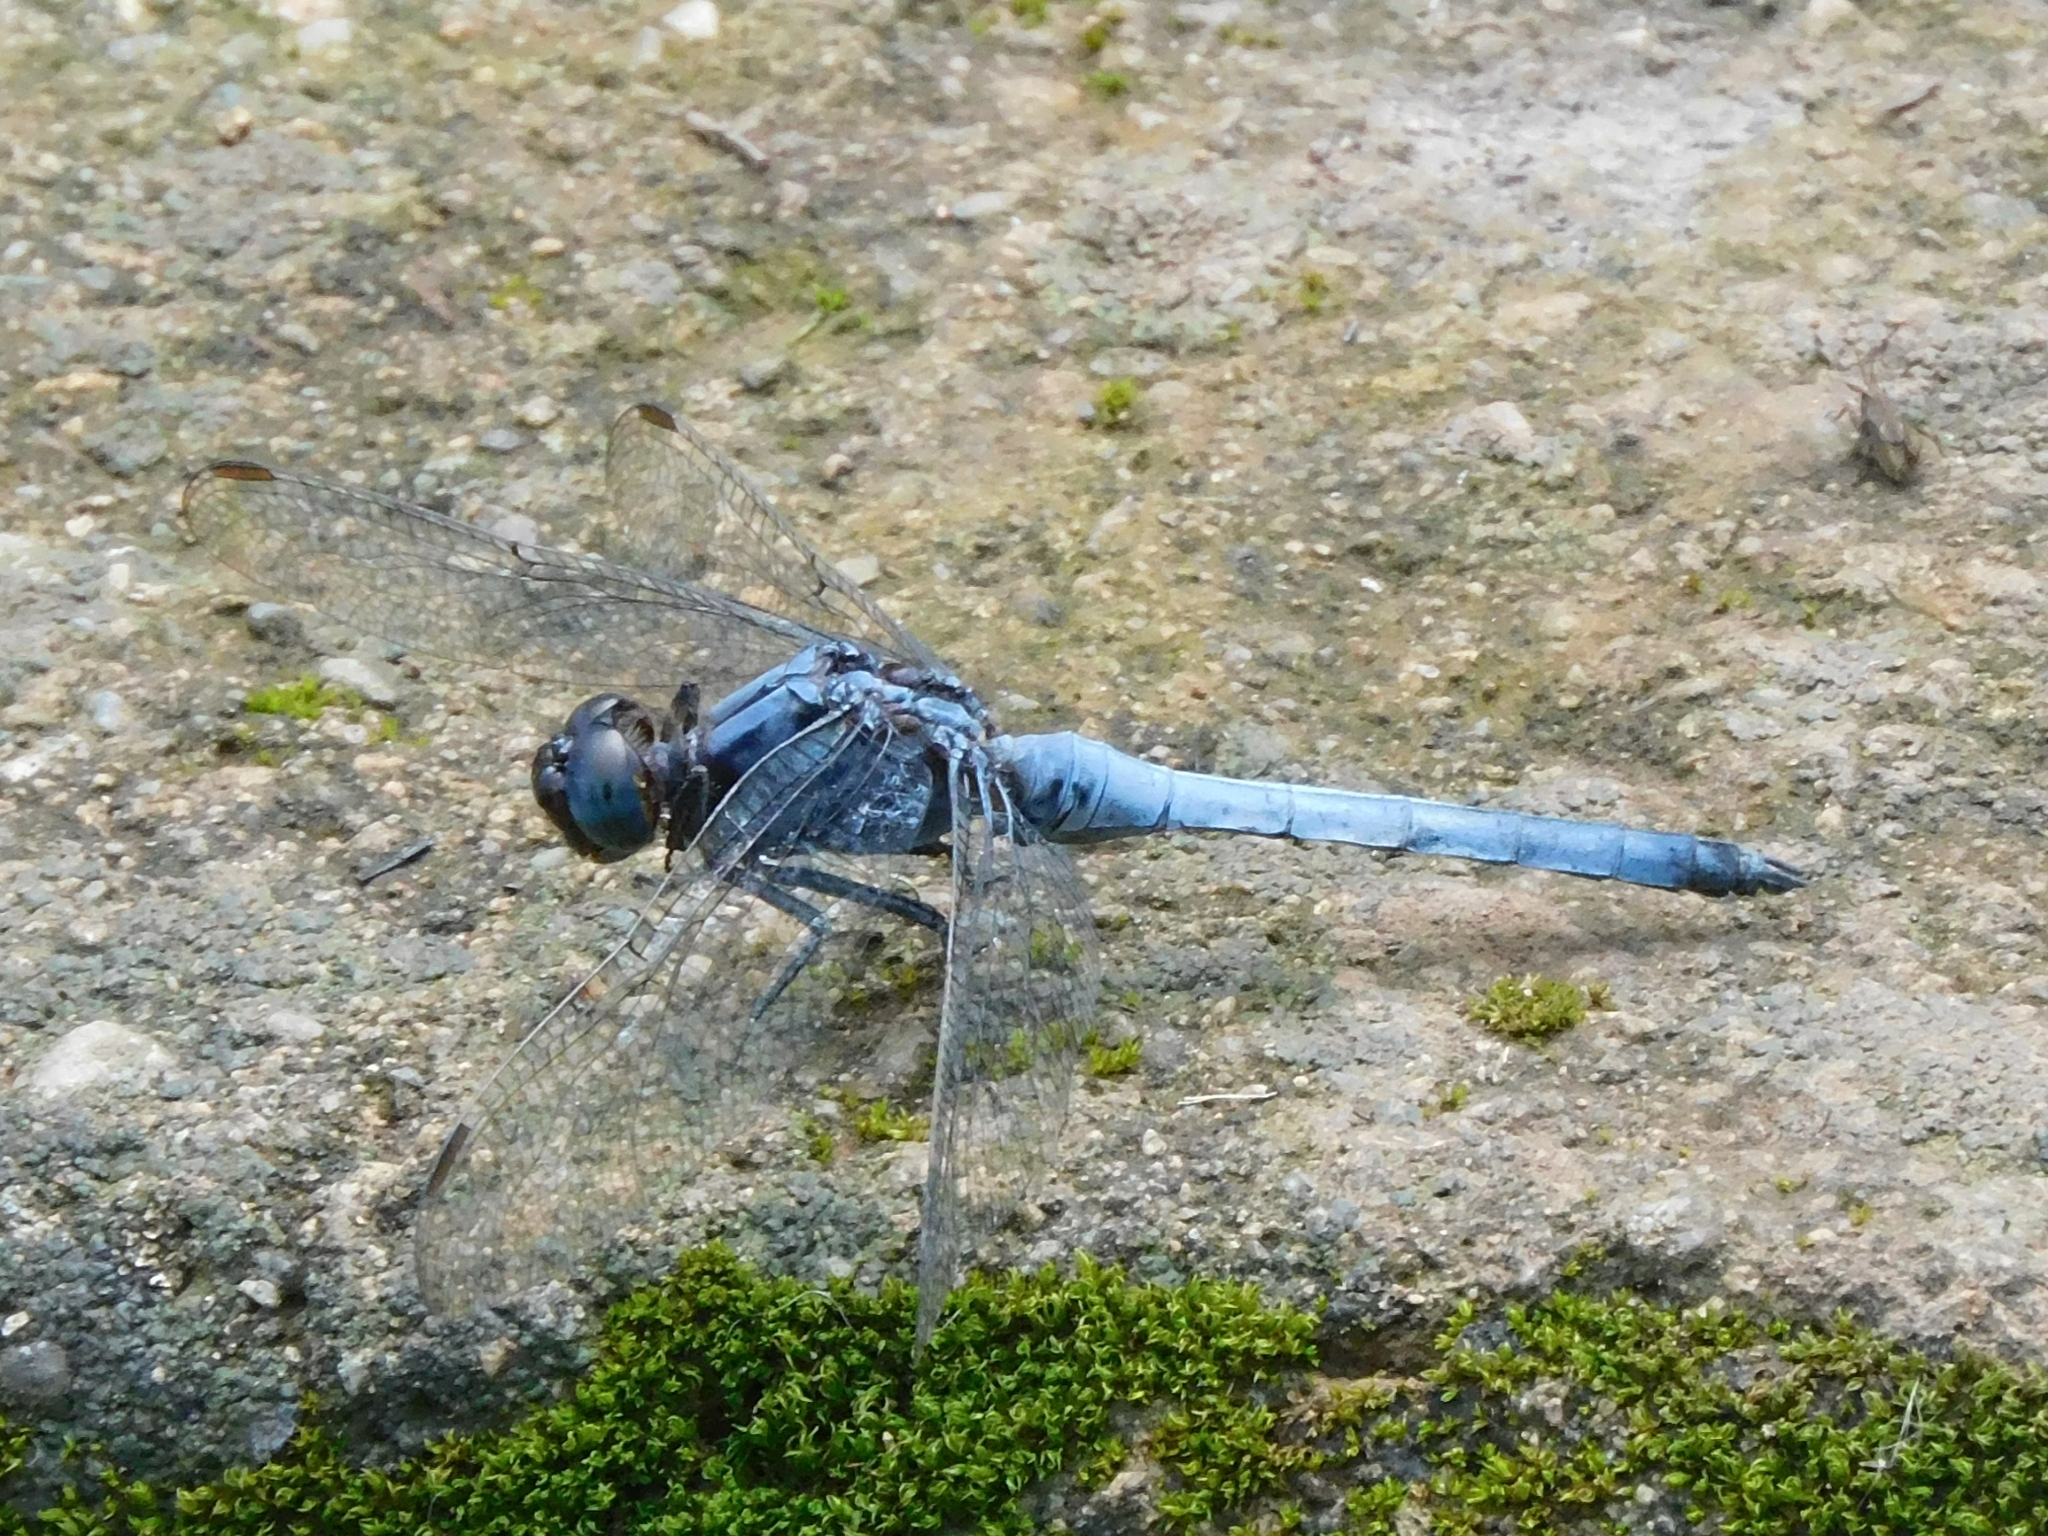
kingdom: Animalia
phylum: Arthropoda
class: Insecta
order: Odonata
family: Libellulidae
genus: Orthetrum
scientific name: Orthetrum glaucum
